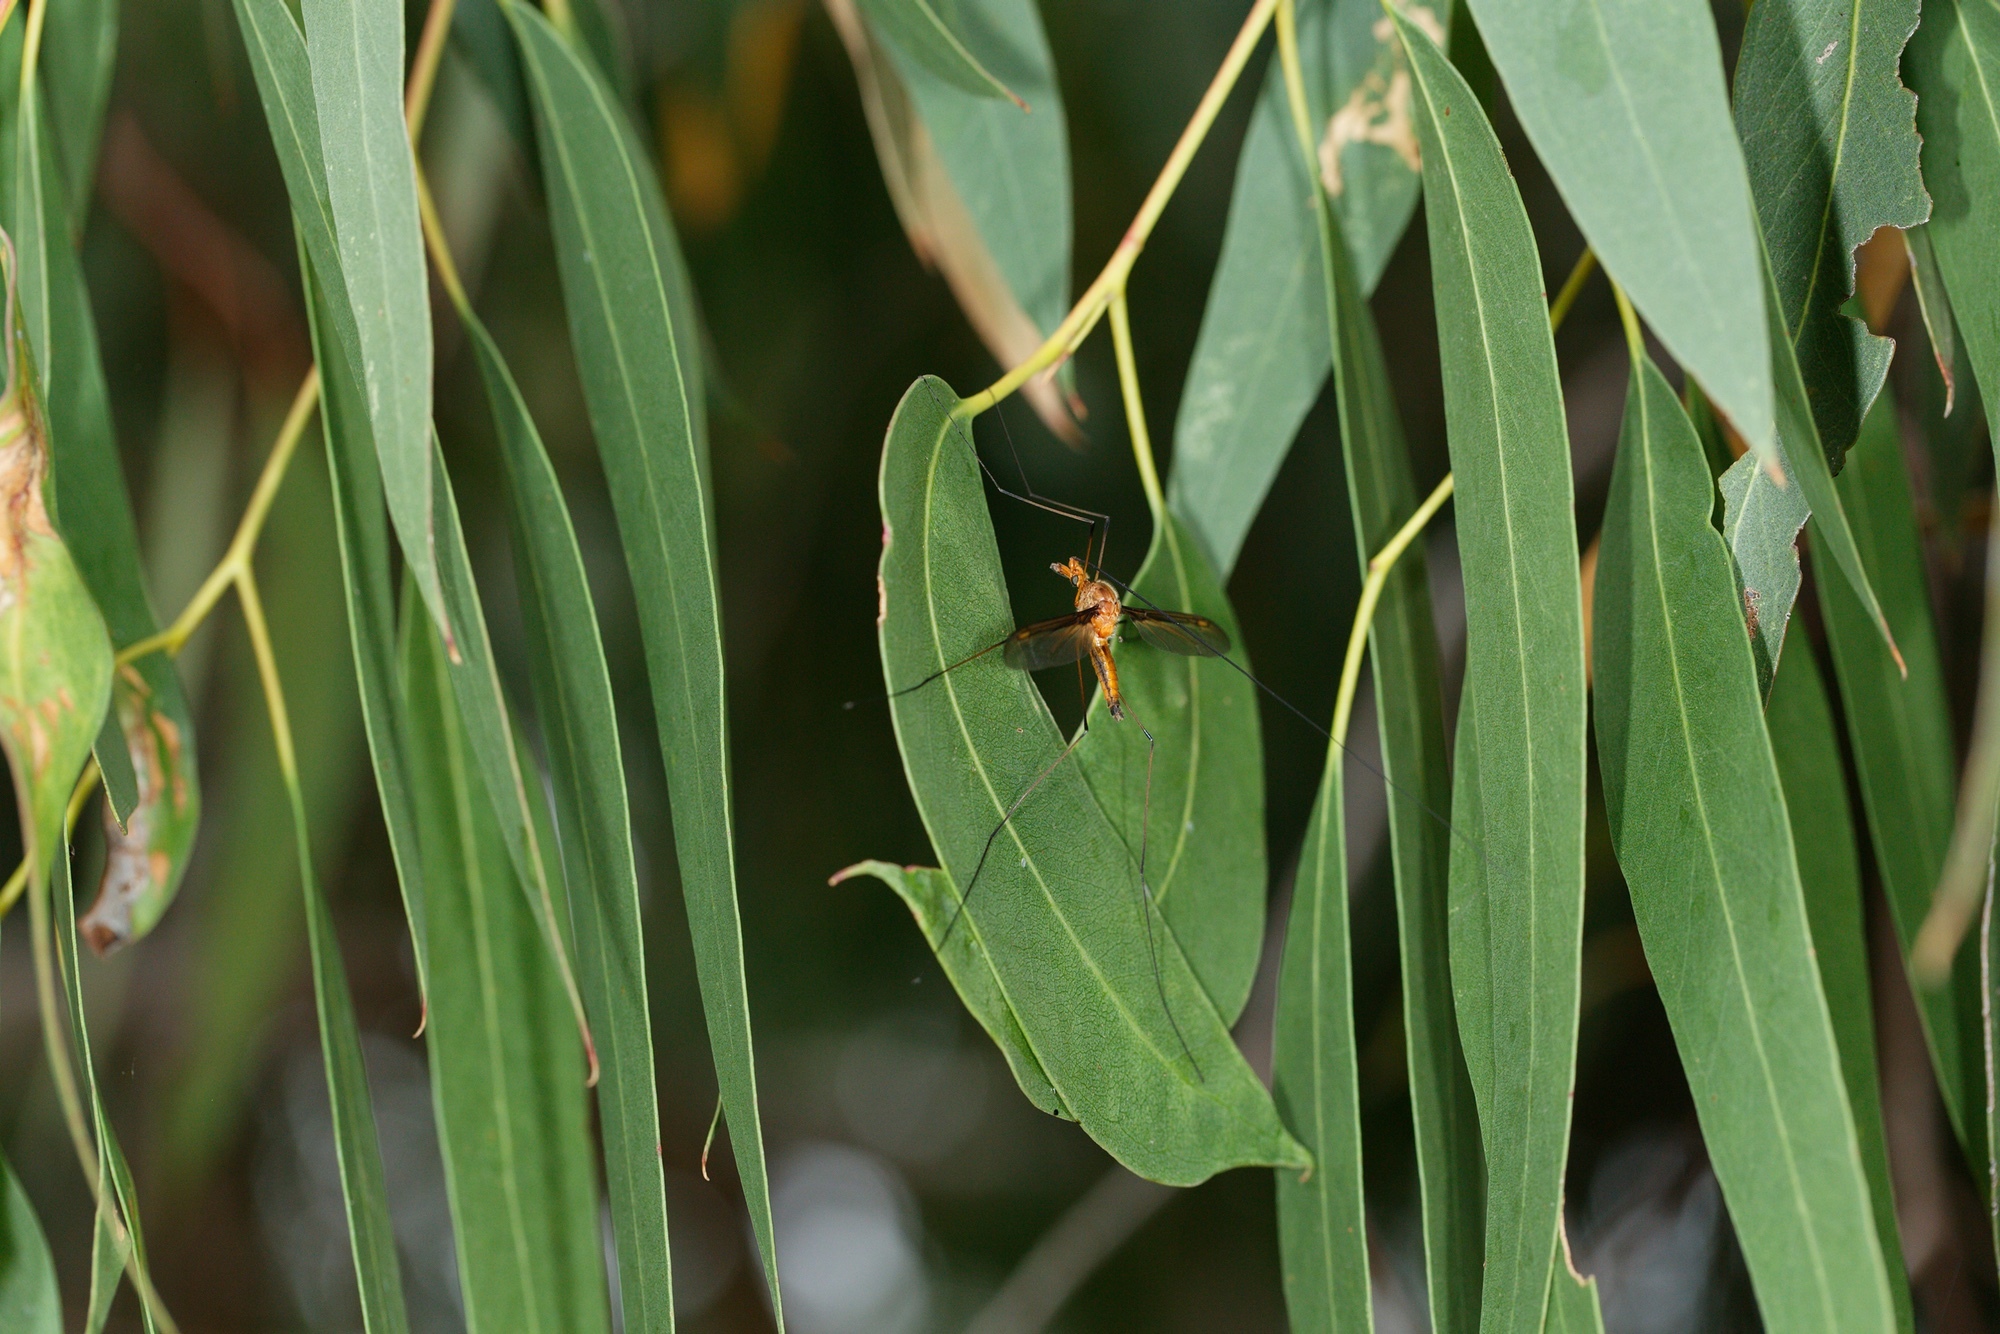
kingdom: Animalia
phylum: Arthropoda
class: Insecta
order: Diptera
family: Tipulidae
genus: Leptotarsus
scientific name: Leptotarsus costalis
